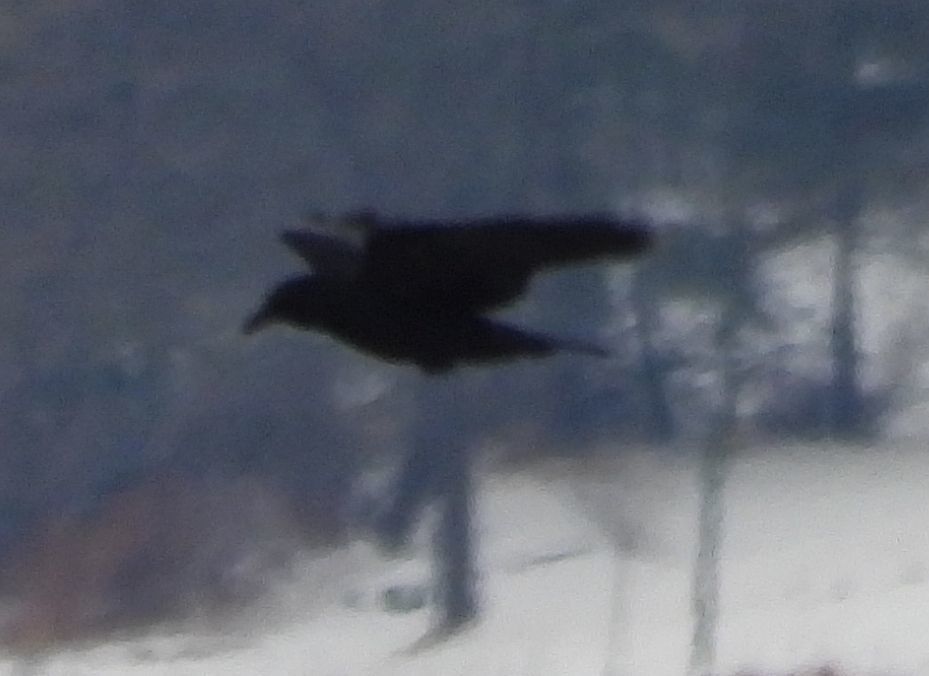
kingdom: Animalia
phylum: Chordata
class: Aves
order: Passeriformes
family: Corvidae
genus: Corvus
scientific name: Corvus brachyrhynchos
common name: American crow
